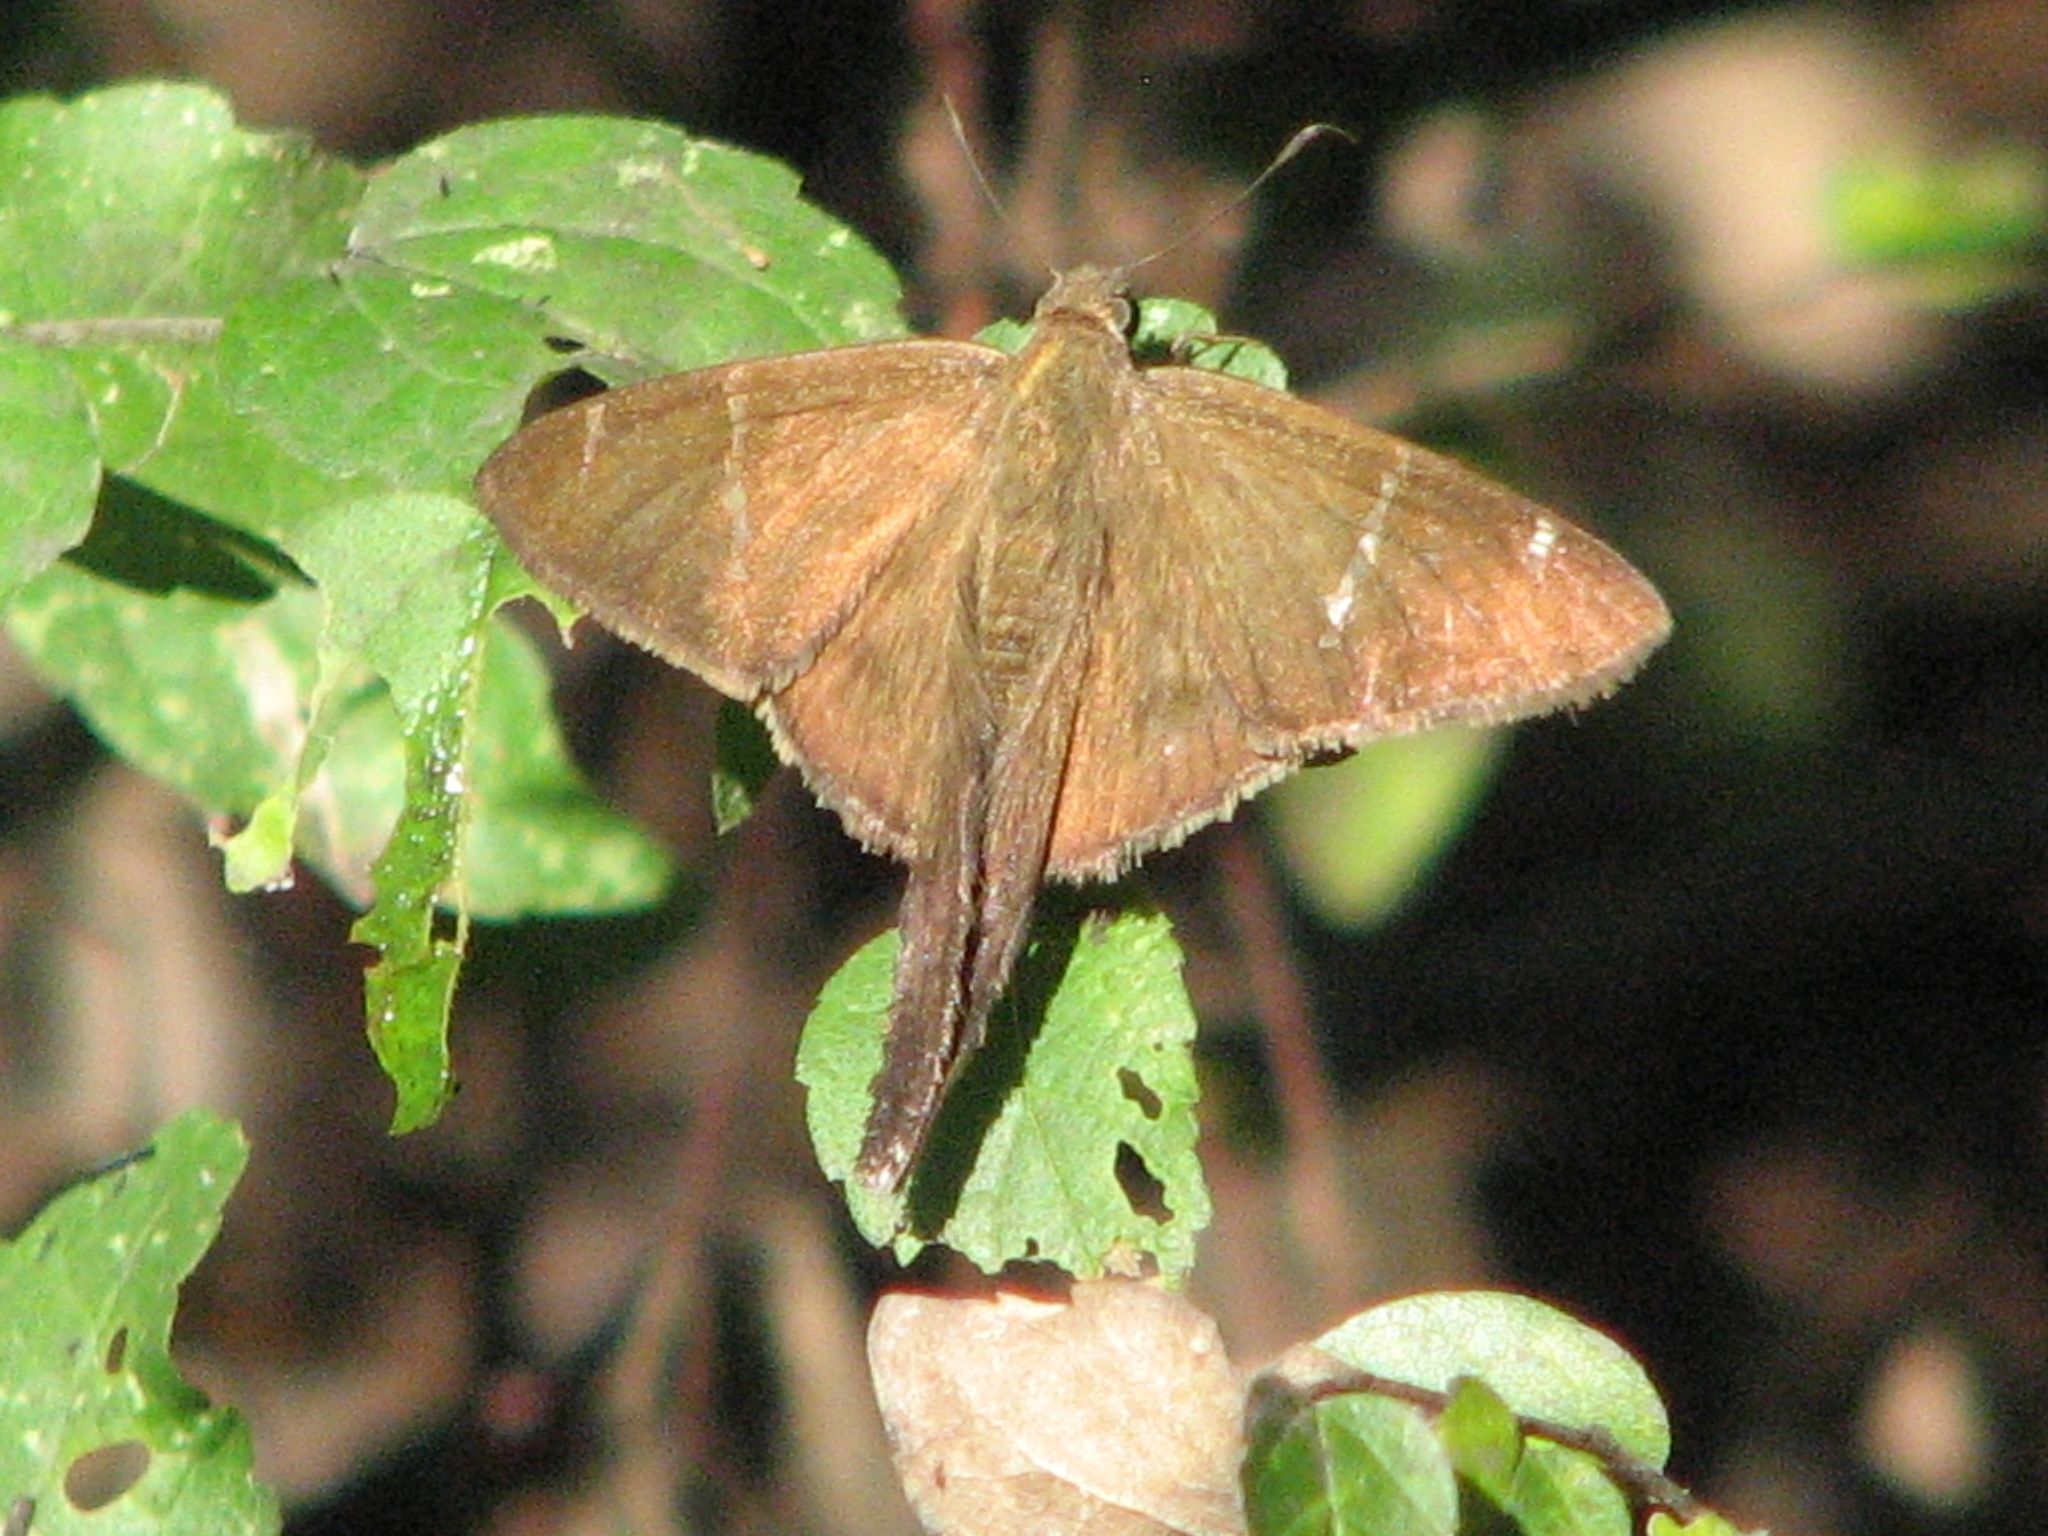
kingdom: Animalia
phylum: Arthropoda
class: Insecta
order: Lepidoptera
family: Hesperiidae
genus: Urbanus
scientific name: Urbanus procne
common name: Brown longtail
